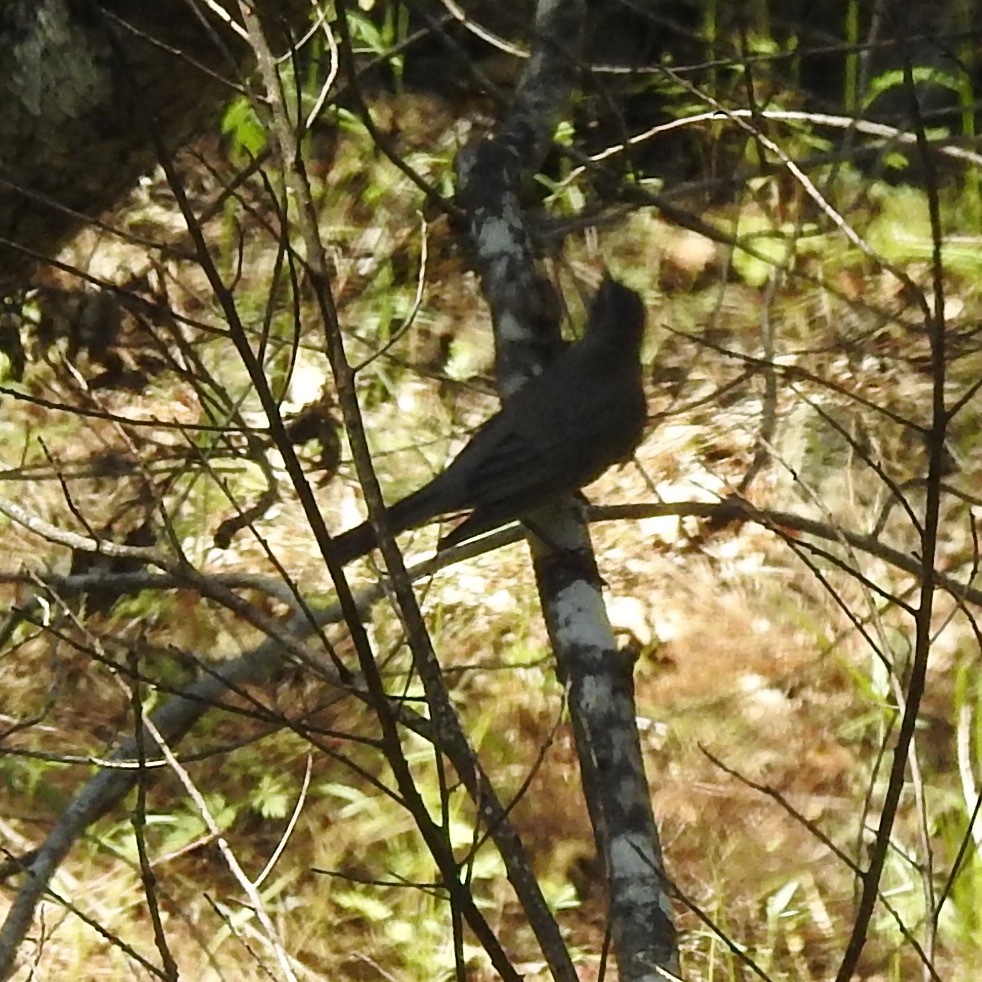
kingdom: Animalia
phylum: Chordata
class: Aves
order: Passeriformes
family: Turdidae
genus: Turdus
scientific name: Turdus migratorius
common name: American robin
